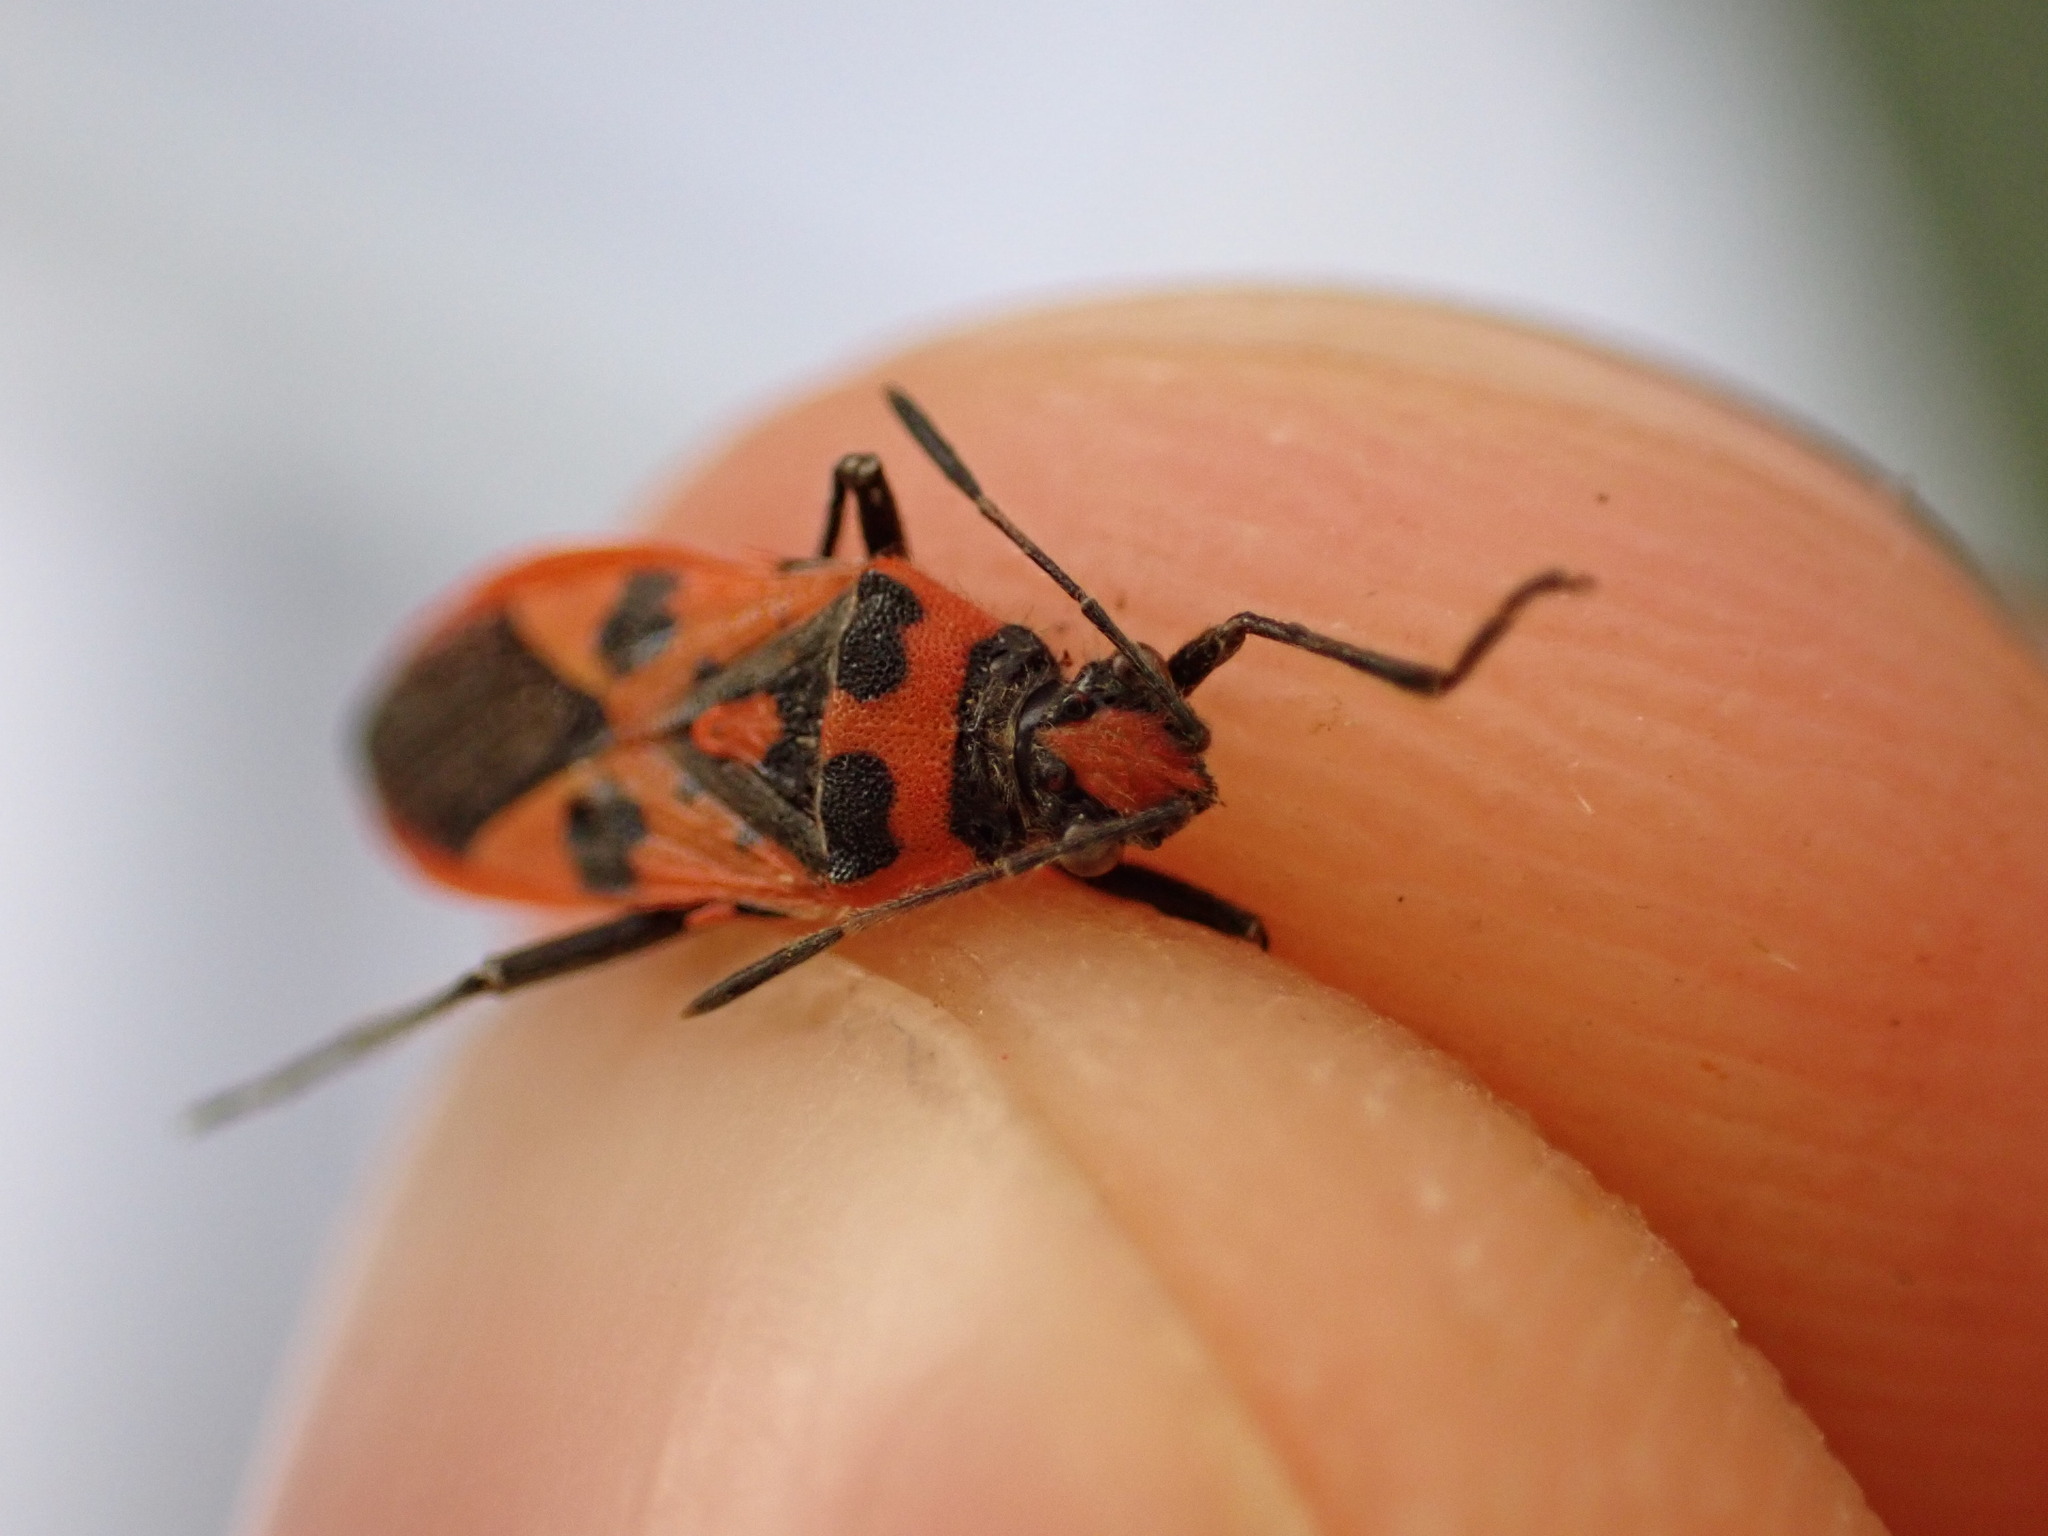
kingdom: Animalia
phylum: Arthropoda
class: Insecta
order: Hemiptera
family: Rhopalidae
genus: Corizus
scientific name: Corizus hyoscyami
